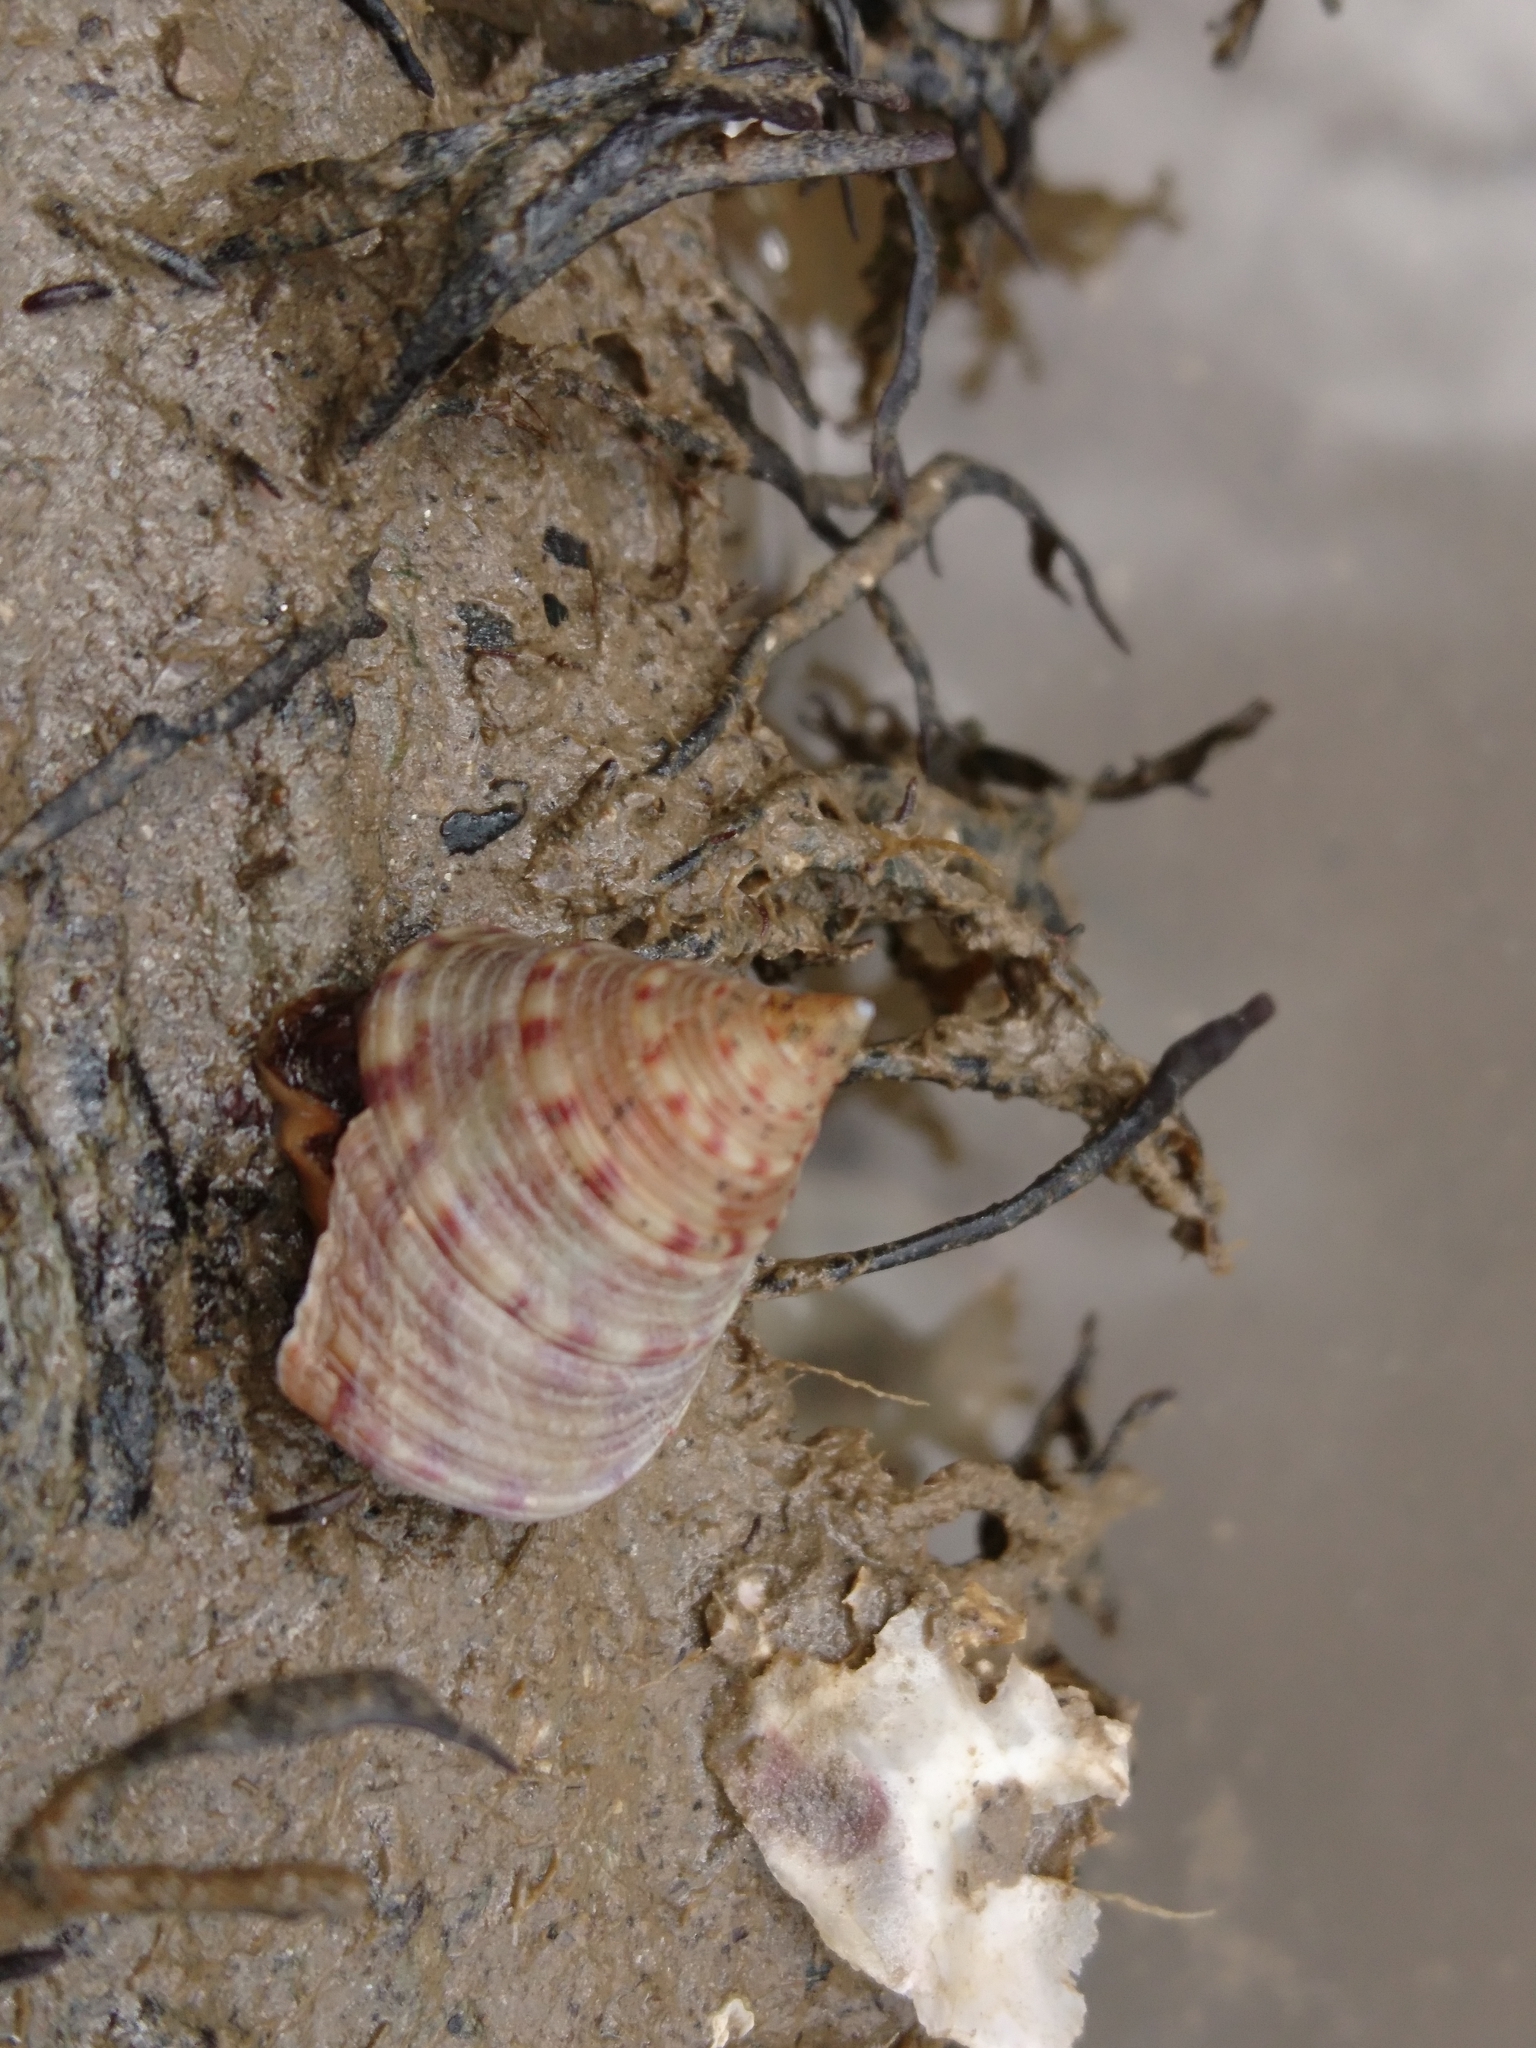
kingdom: Animalia
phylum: Mollusca
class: Gastropoda
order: Trochida
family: Calliostomatidae
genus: Calliostoma
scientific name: Calliostoma zizyphinum
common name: Painted top shell
